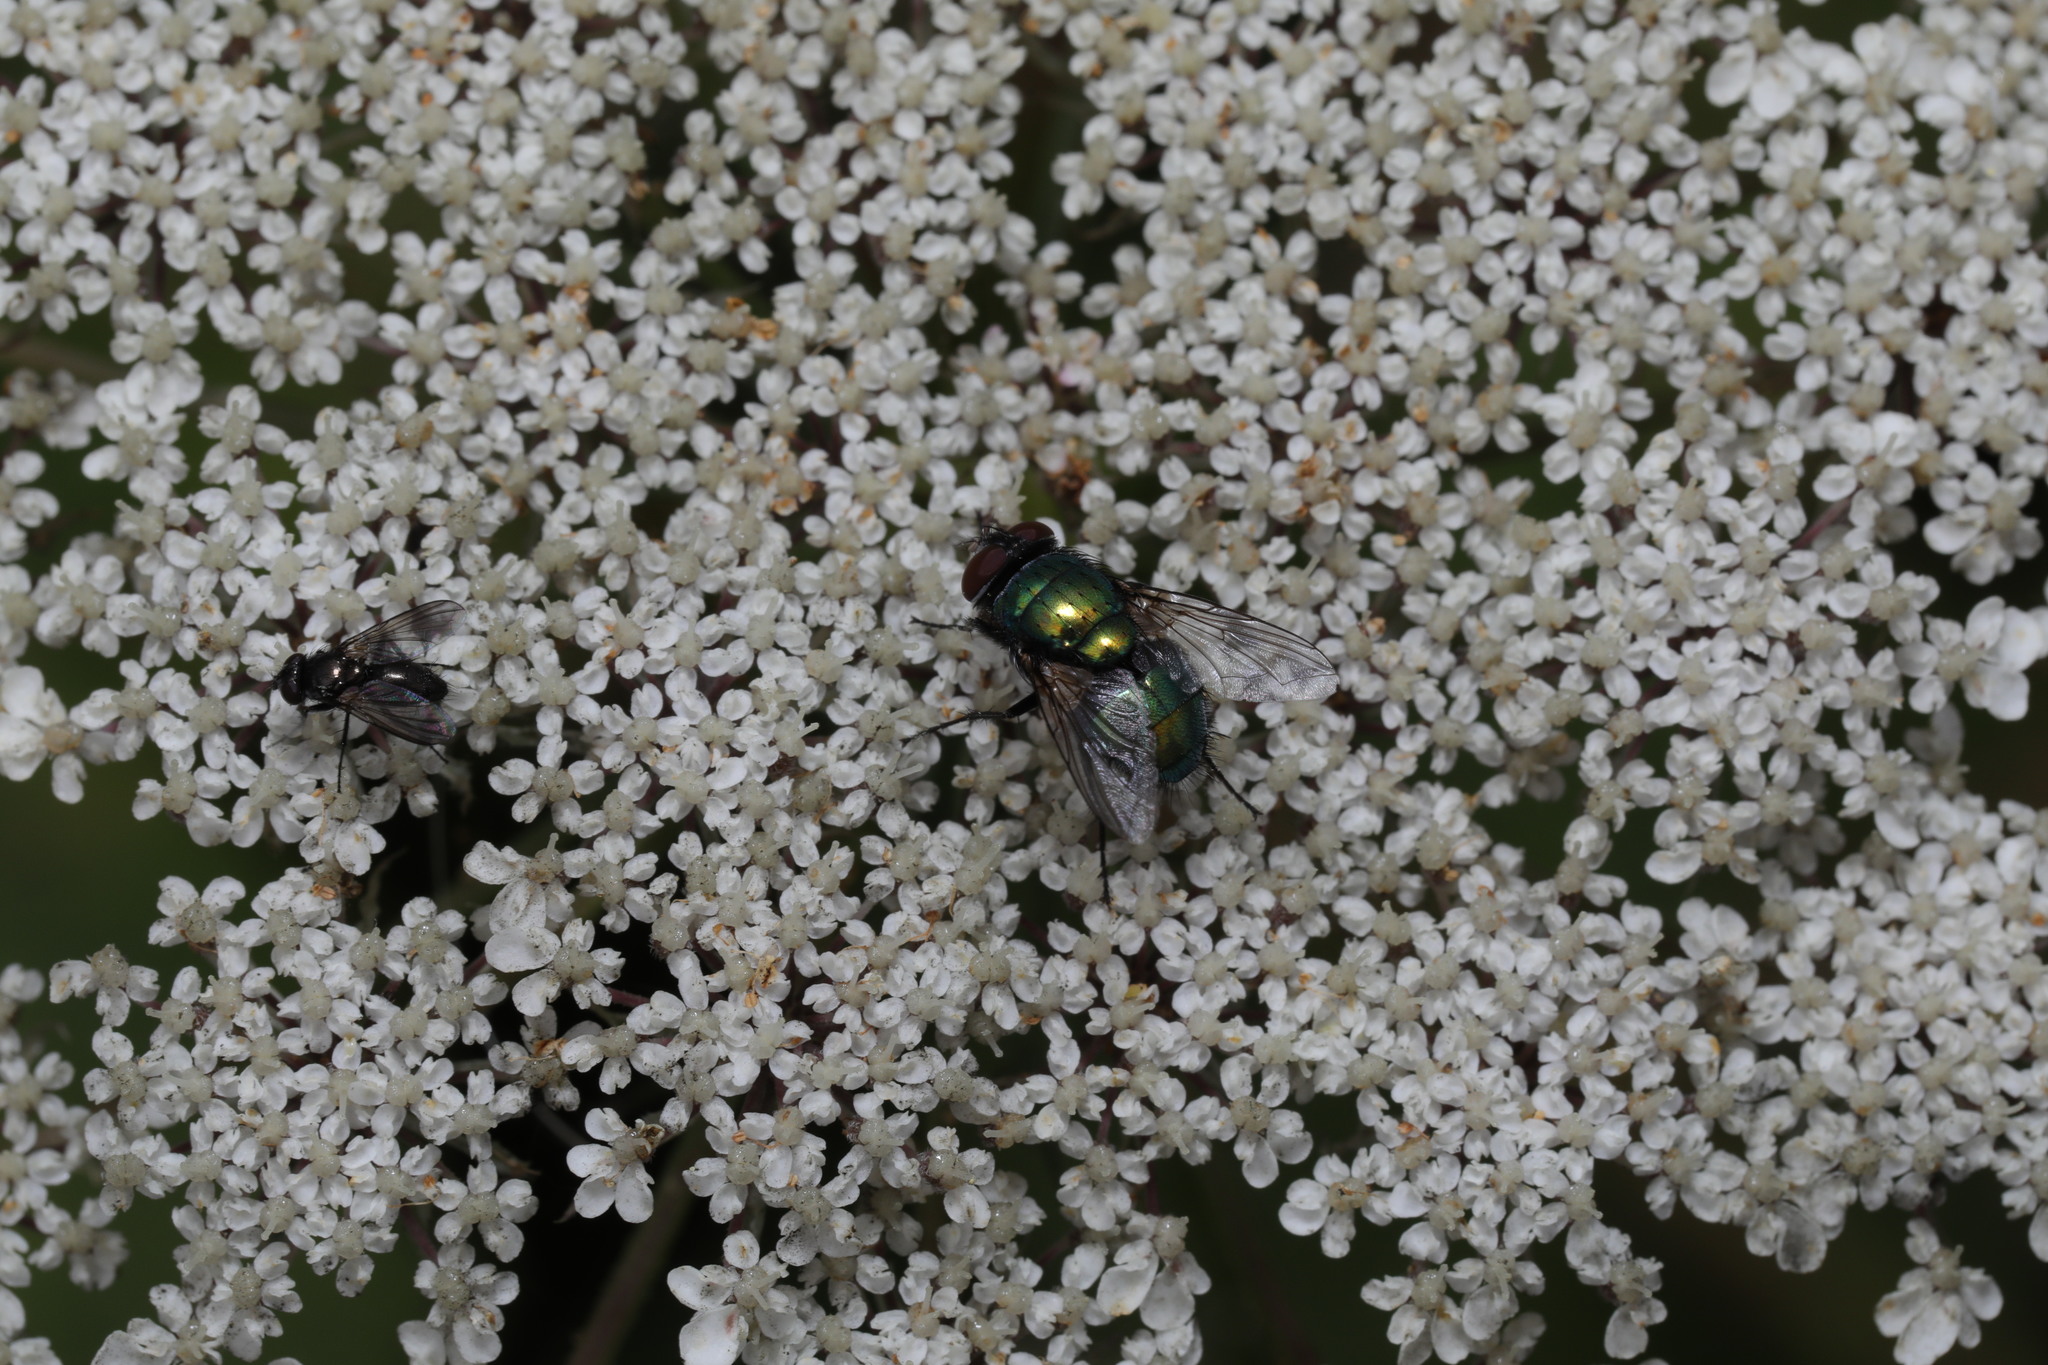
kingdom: Animalia
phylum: Arthropoda
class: Insecta
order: Diptera
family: Calliphoridae
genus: Lucilia
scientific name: Lucilia
